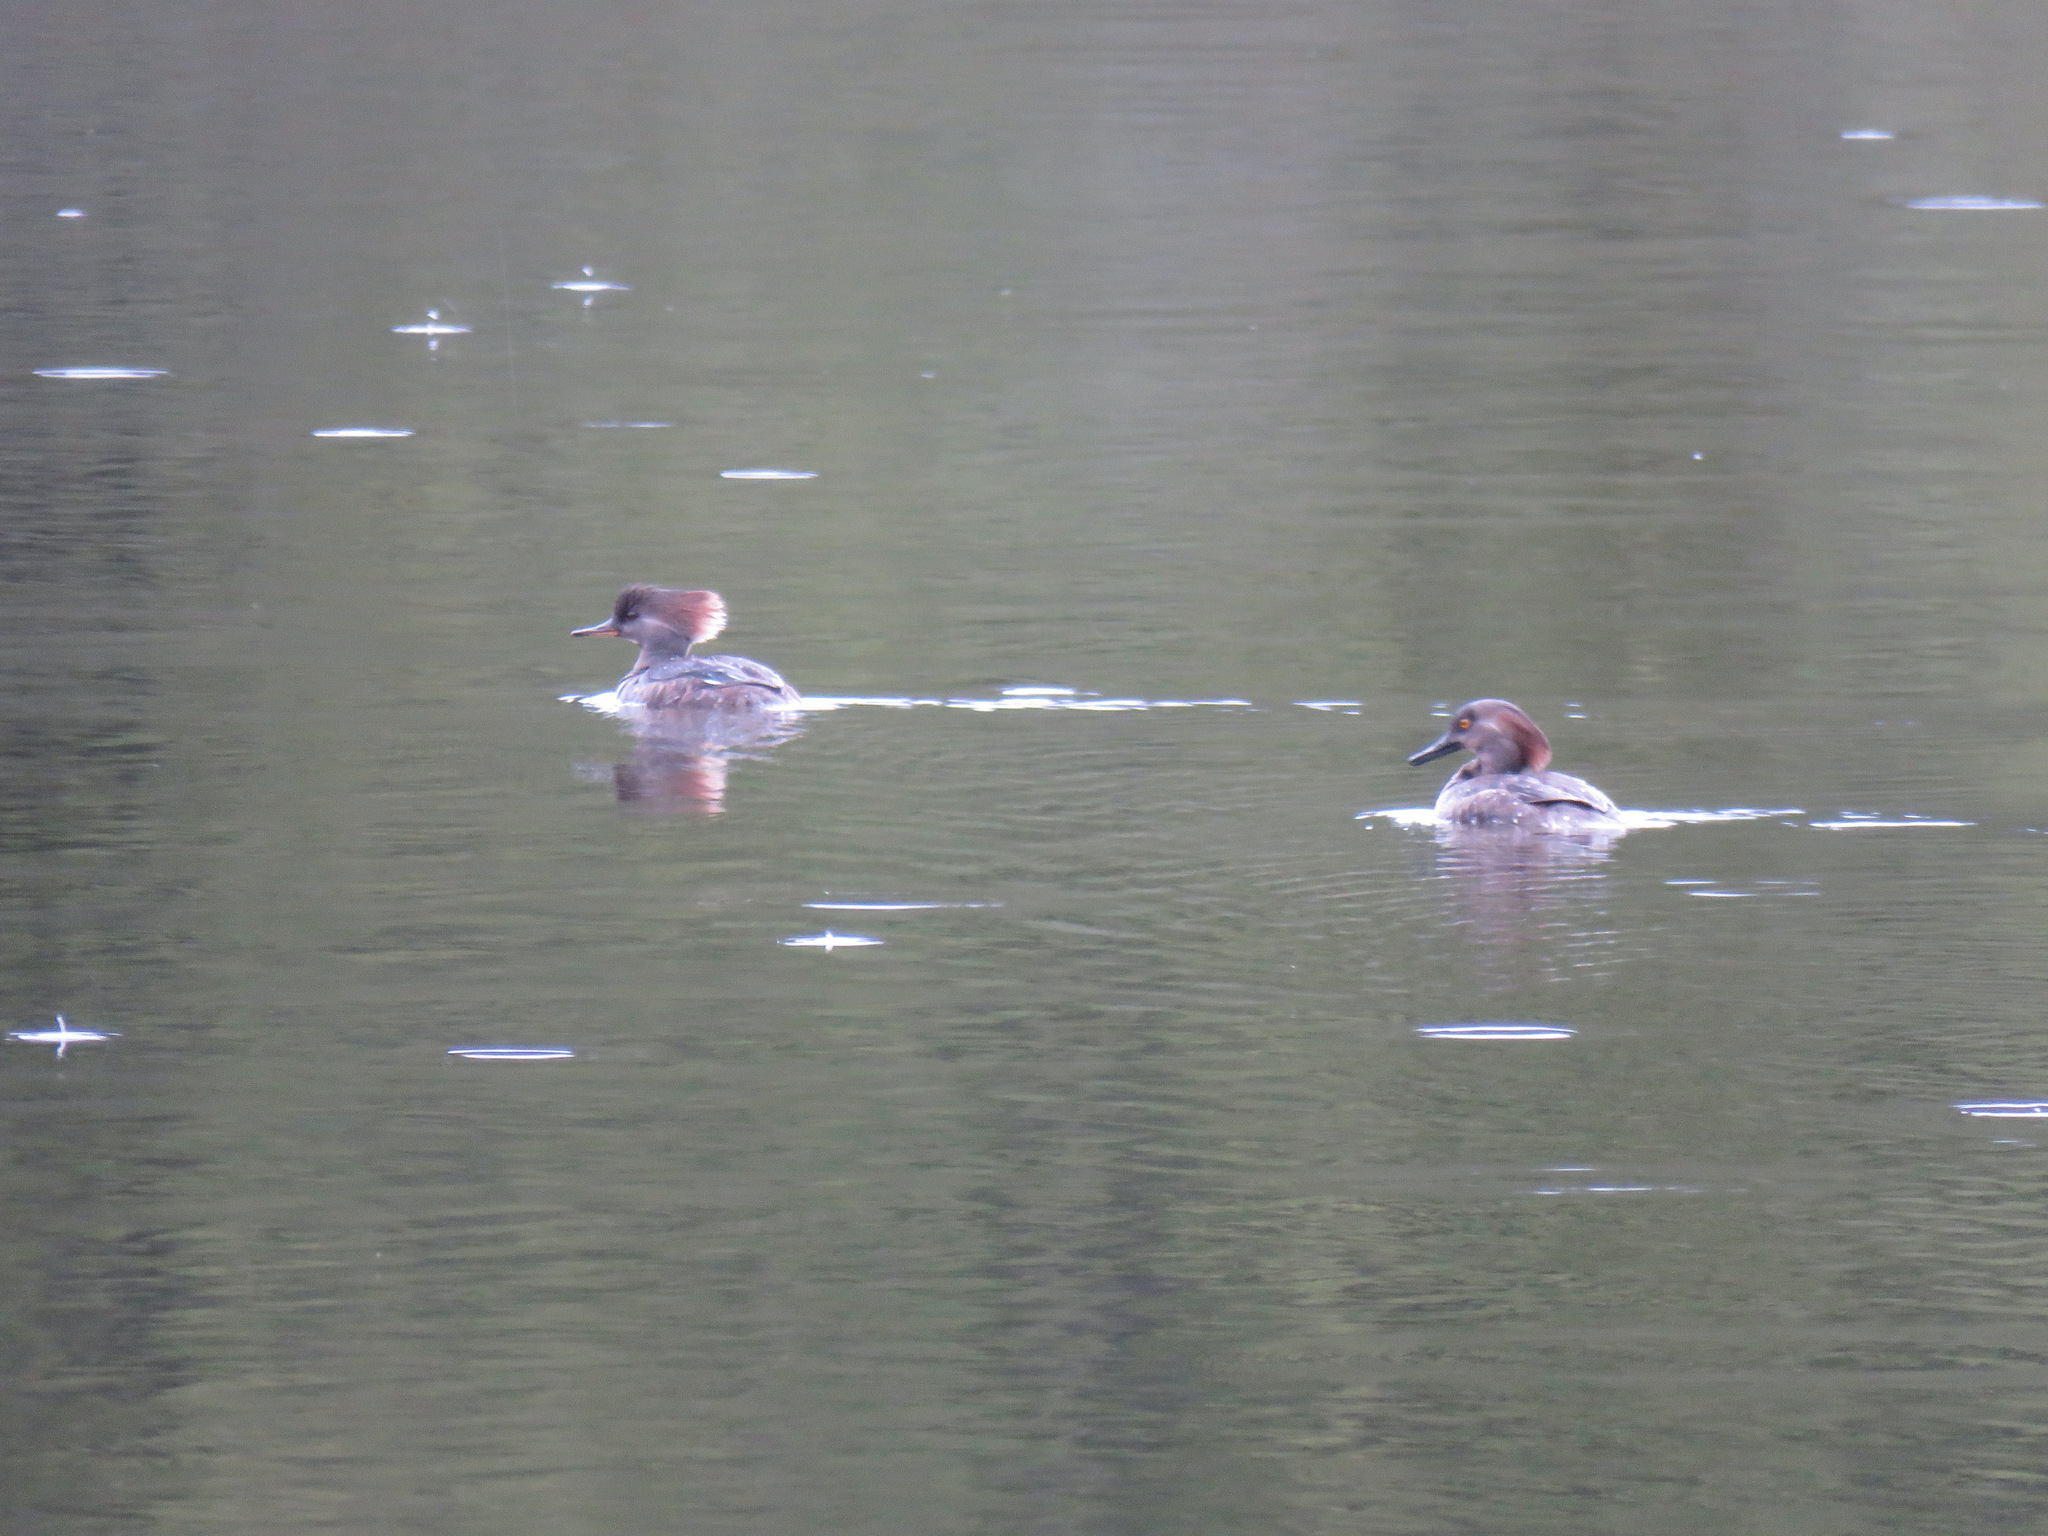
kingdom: Animalia
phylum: Chordata
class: Aves
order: Anseriformes
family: Anatidae
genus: Lophodytes
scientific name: Lophodytes cucullatus
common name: Hooded merganser
